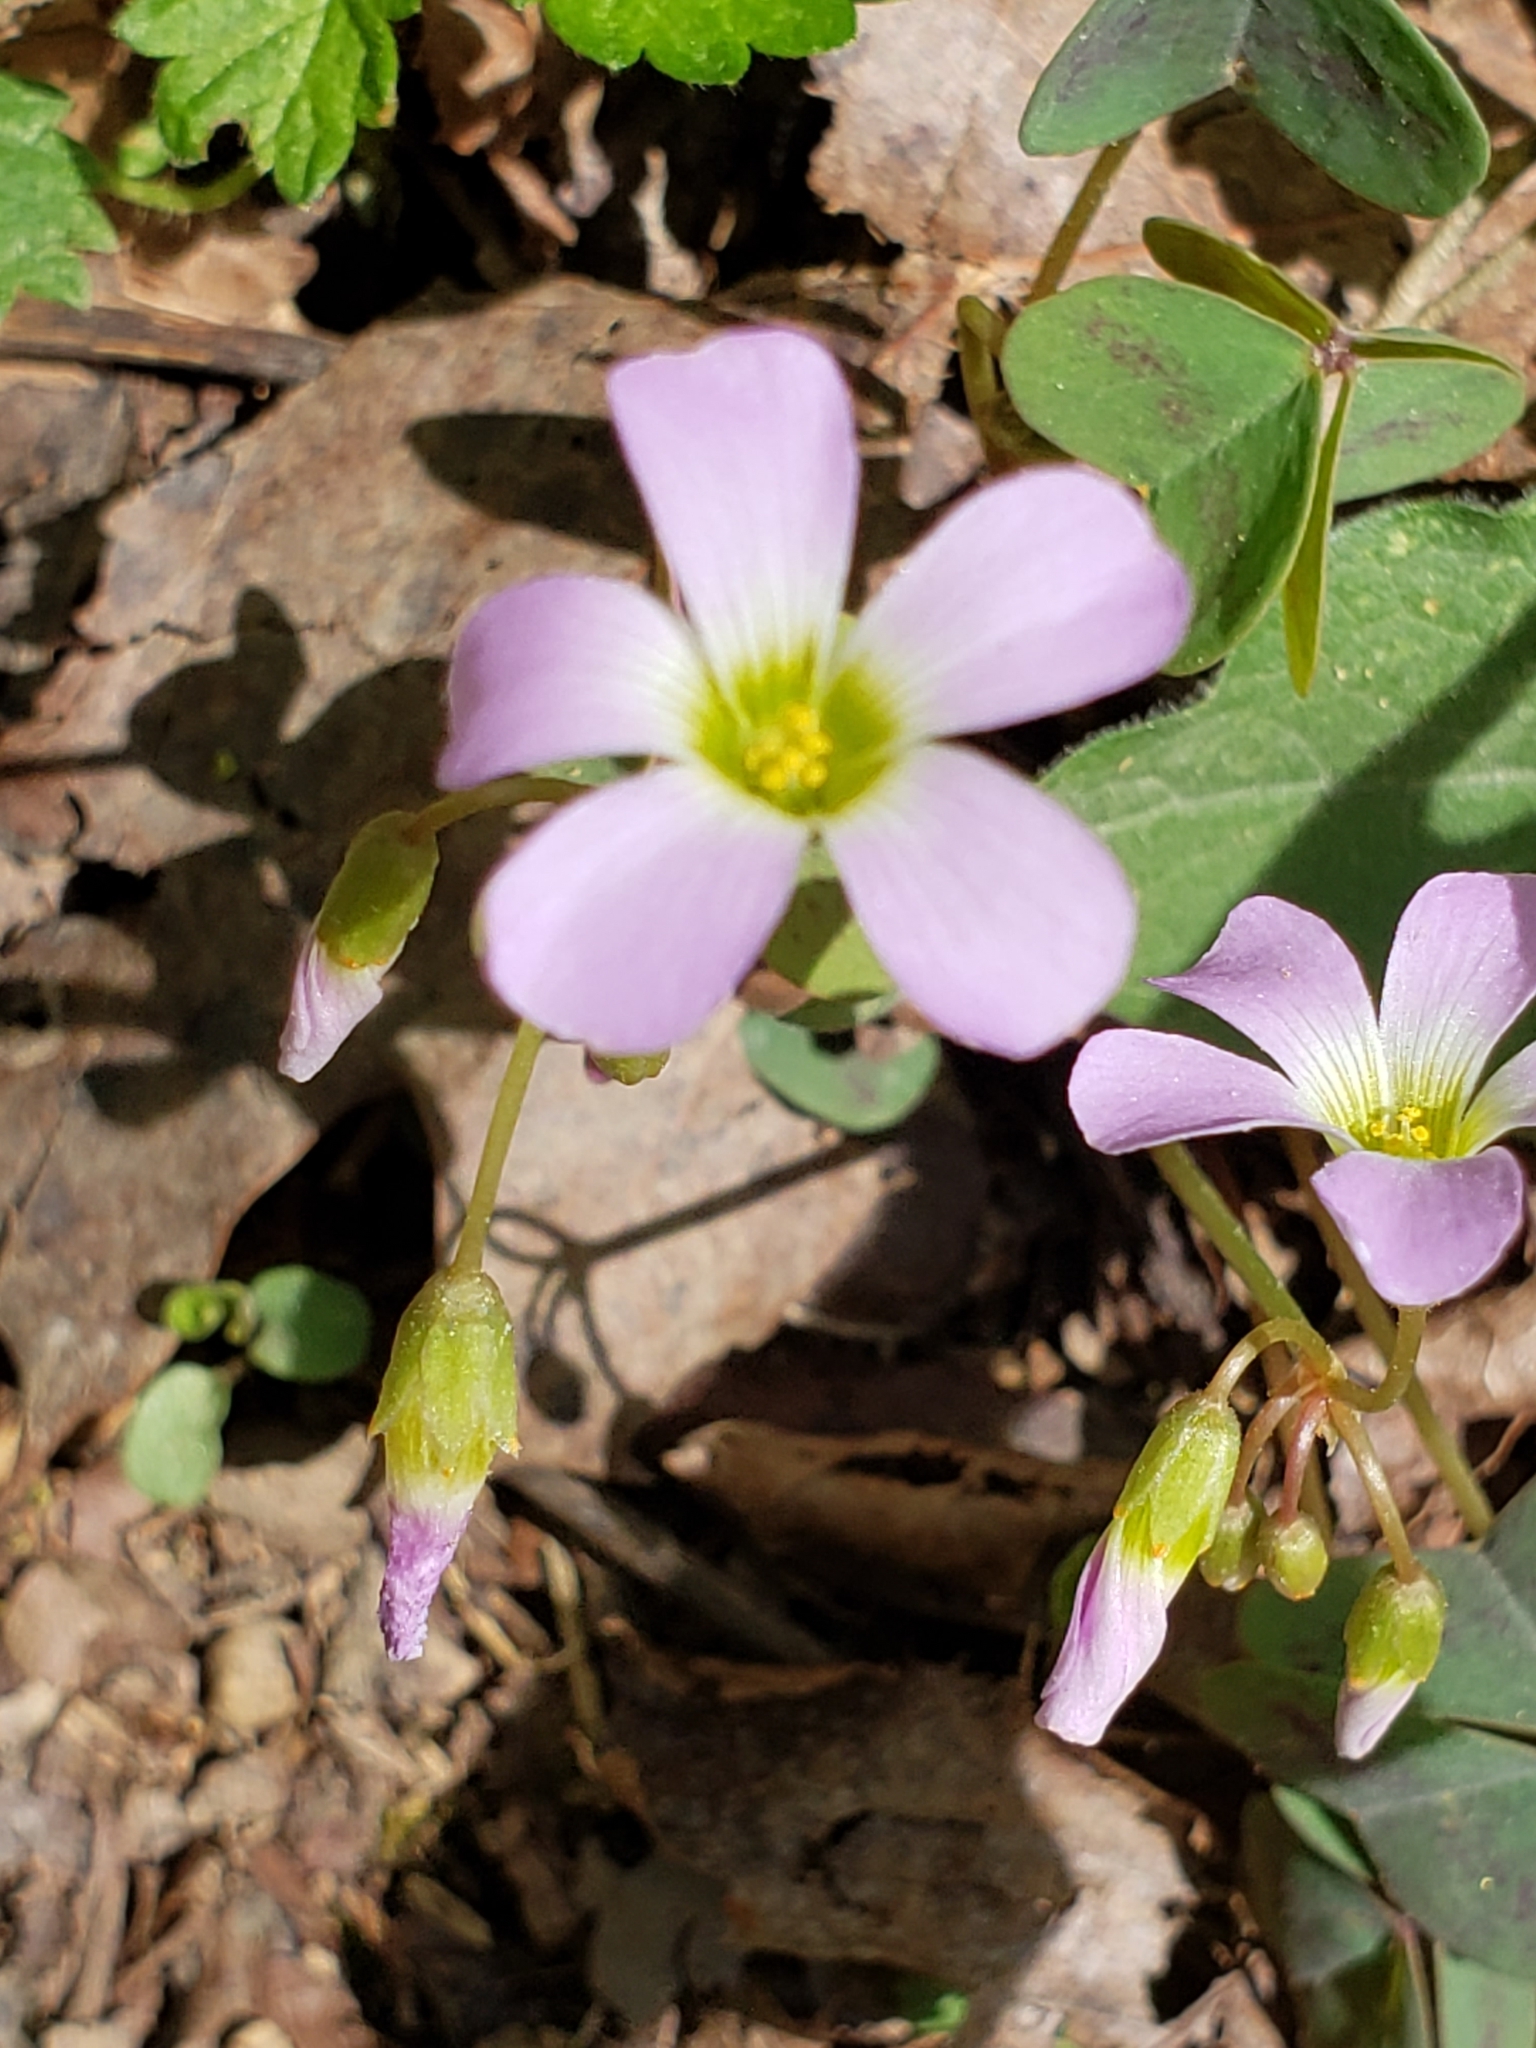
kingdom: Plantae
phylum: Tracheophyta
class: Magnoliopsida
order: Oxalidales
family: Oxalidaceae
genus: Oxalis
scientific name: Oxalis violacea
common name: Violet wood-sorrel
